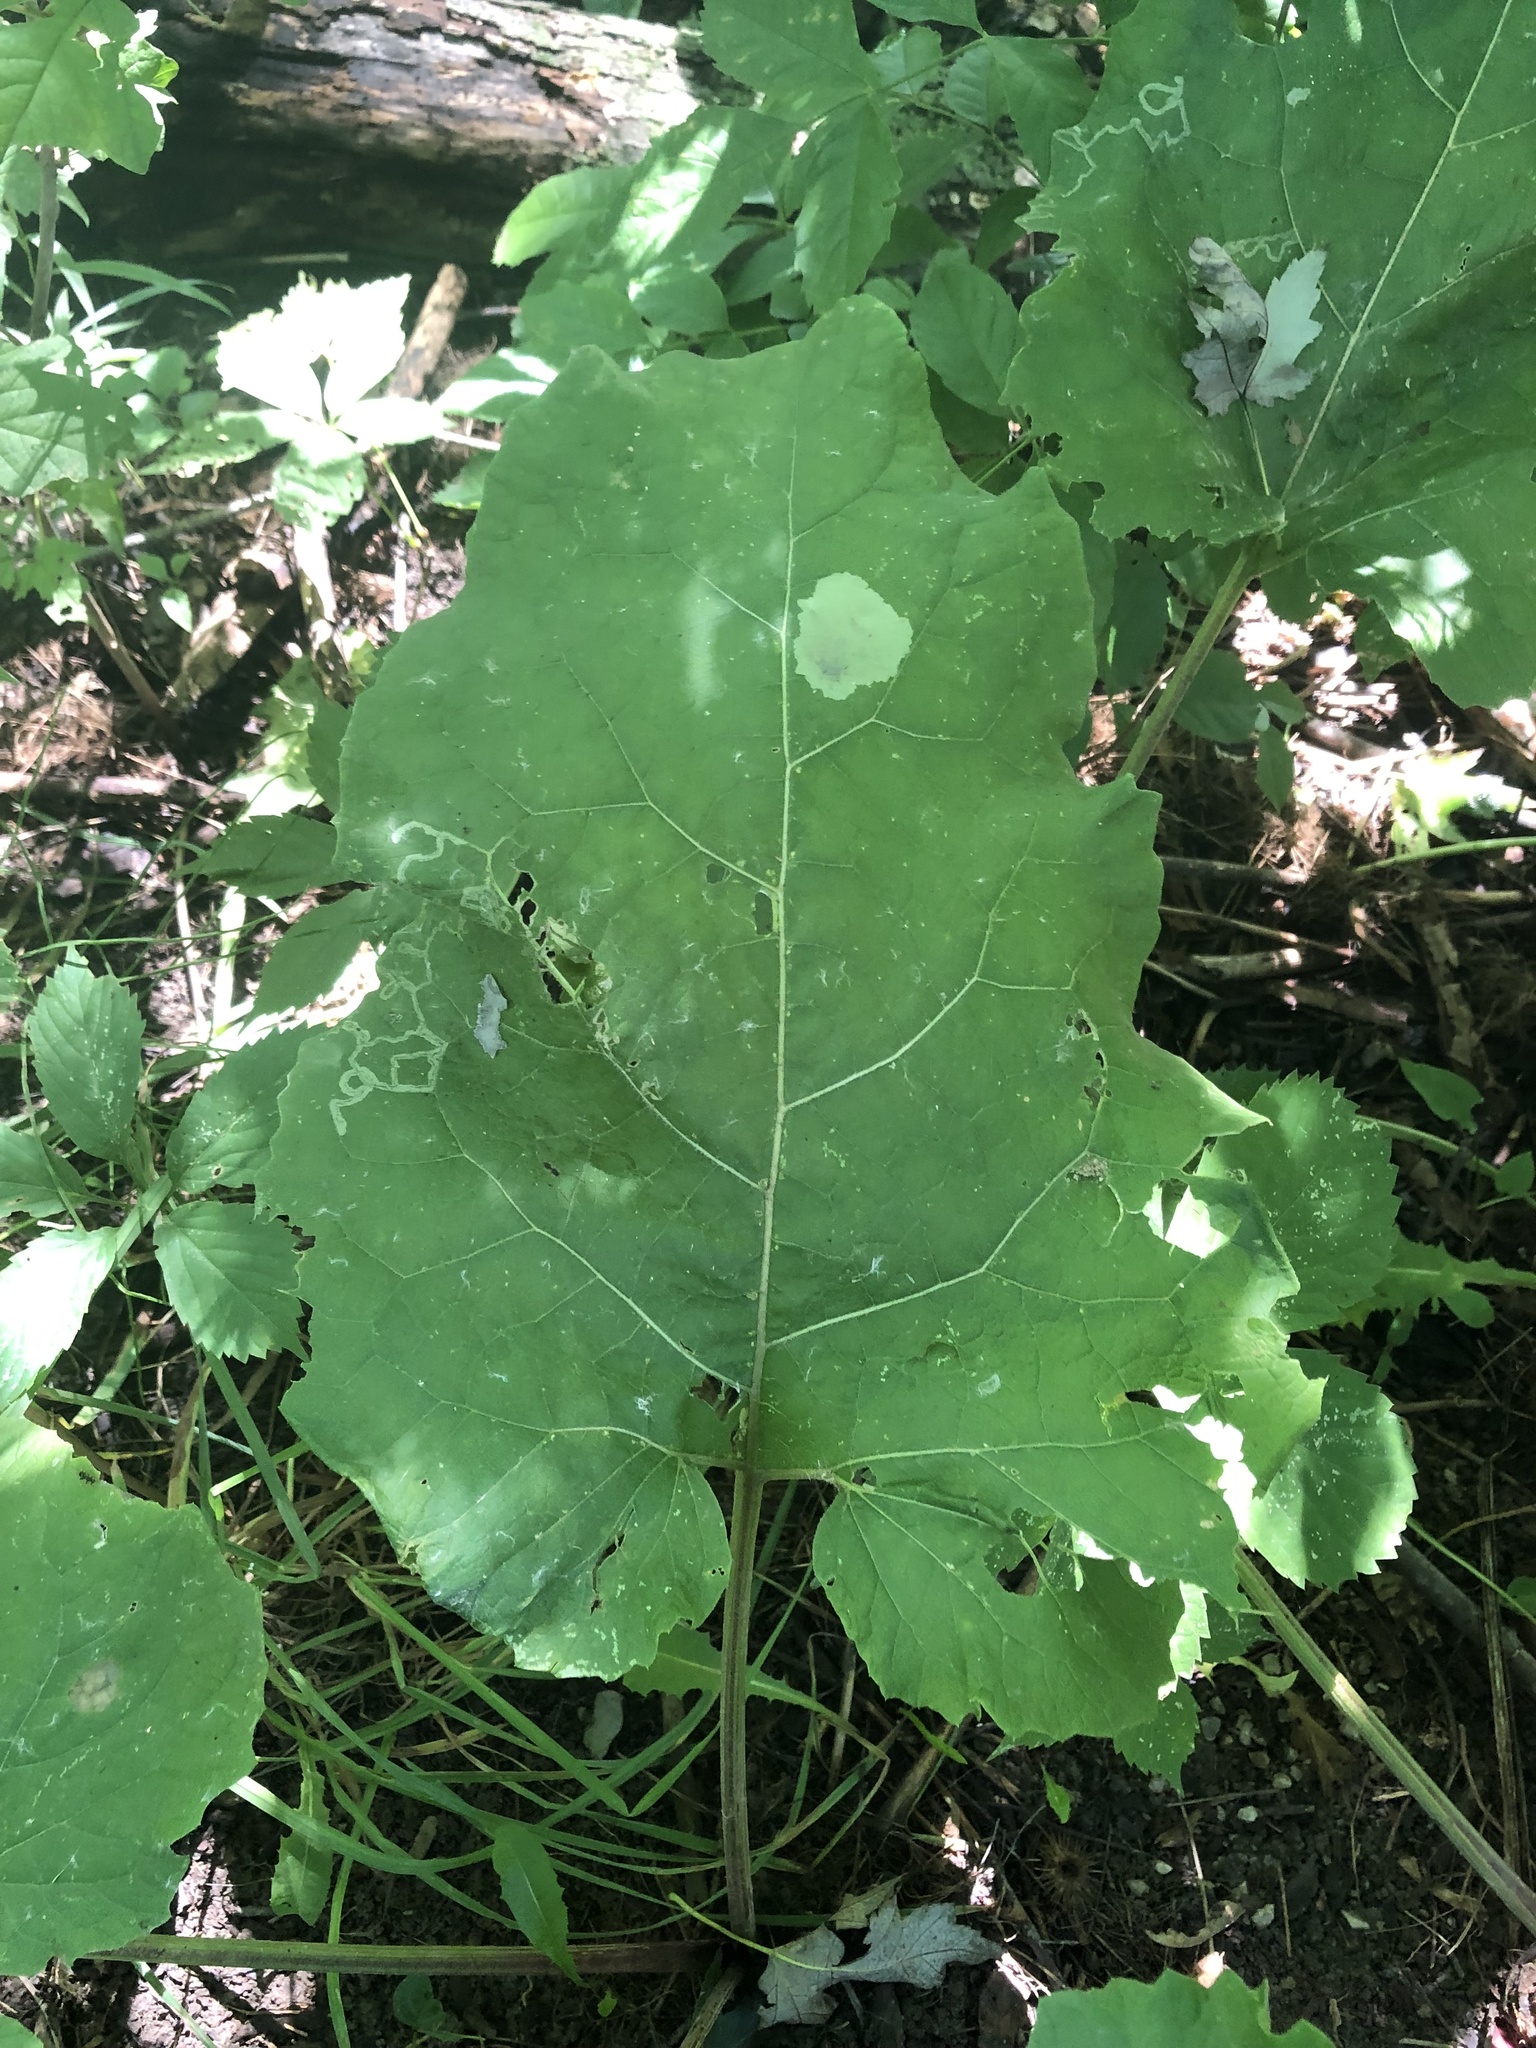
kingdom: Animalia
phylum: Arthropoda
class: Insecta
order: Diptera
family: Agromyzidae
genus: Calycomyza
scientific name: Calycomyza flavinotum
